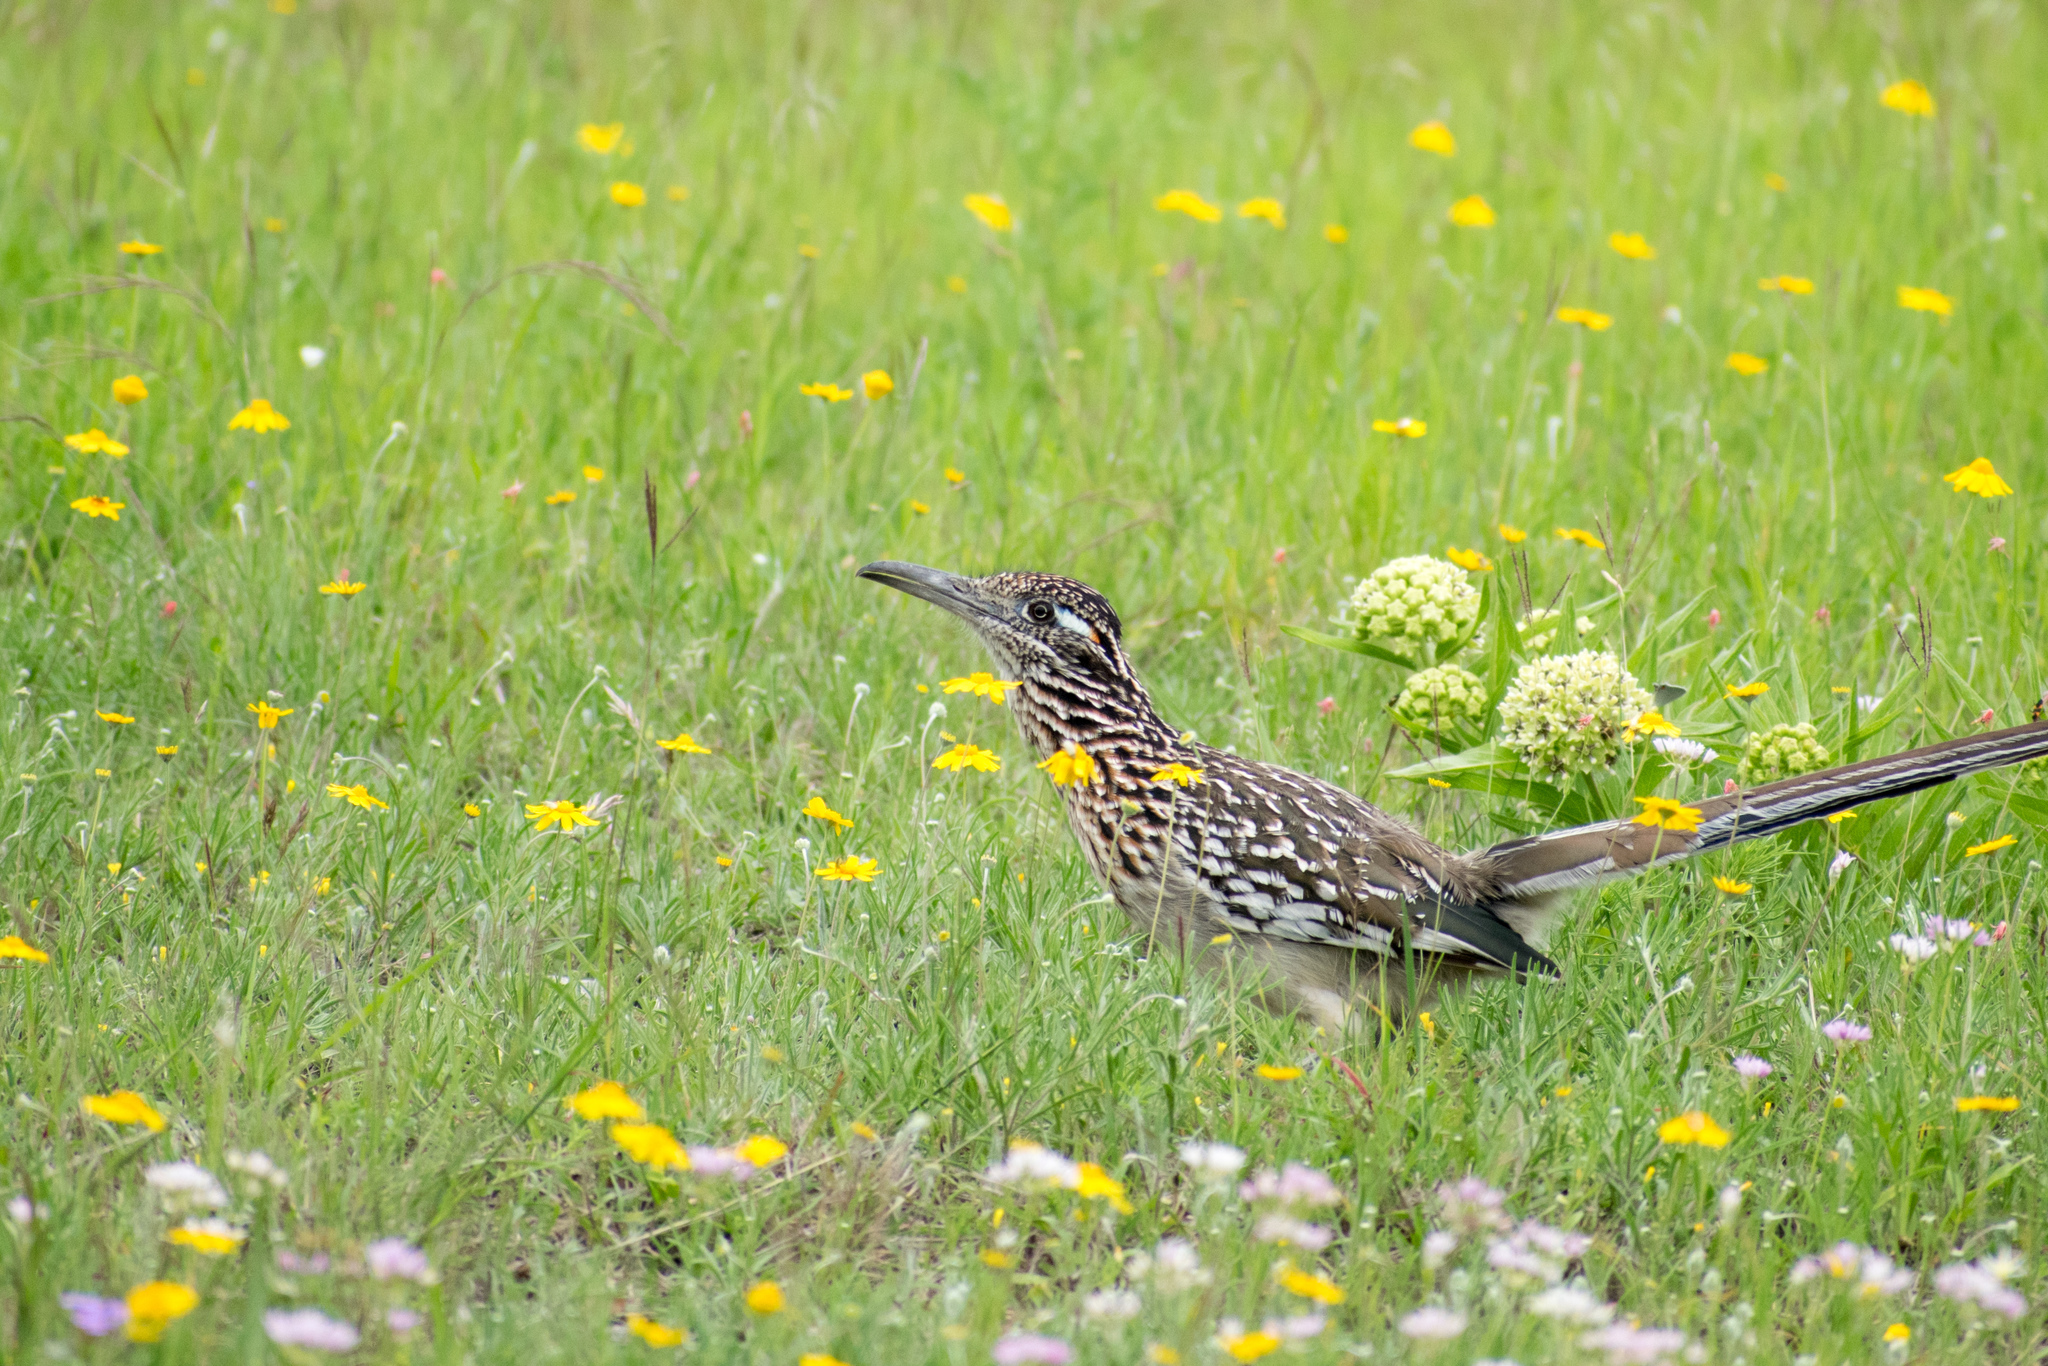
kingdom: Animalia
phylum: Chordata
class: Aves
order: Cuculiformes
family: Cuculidae
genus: Geococcyx
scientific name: Geococcyx californianus
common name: Greater roadrunner
